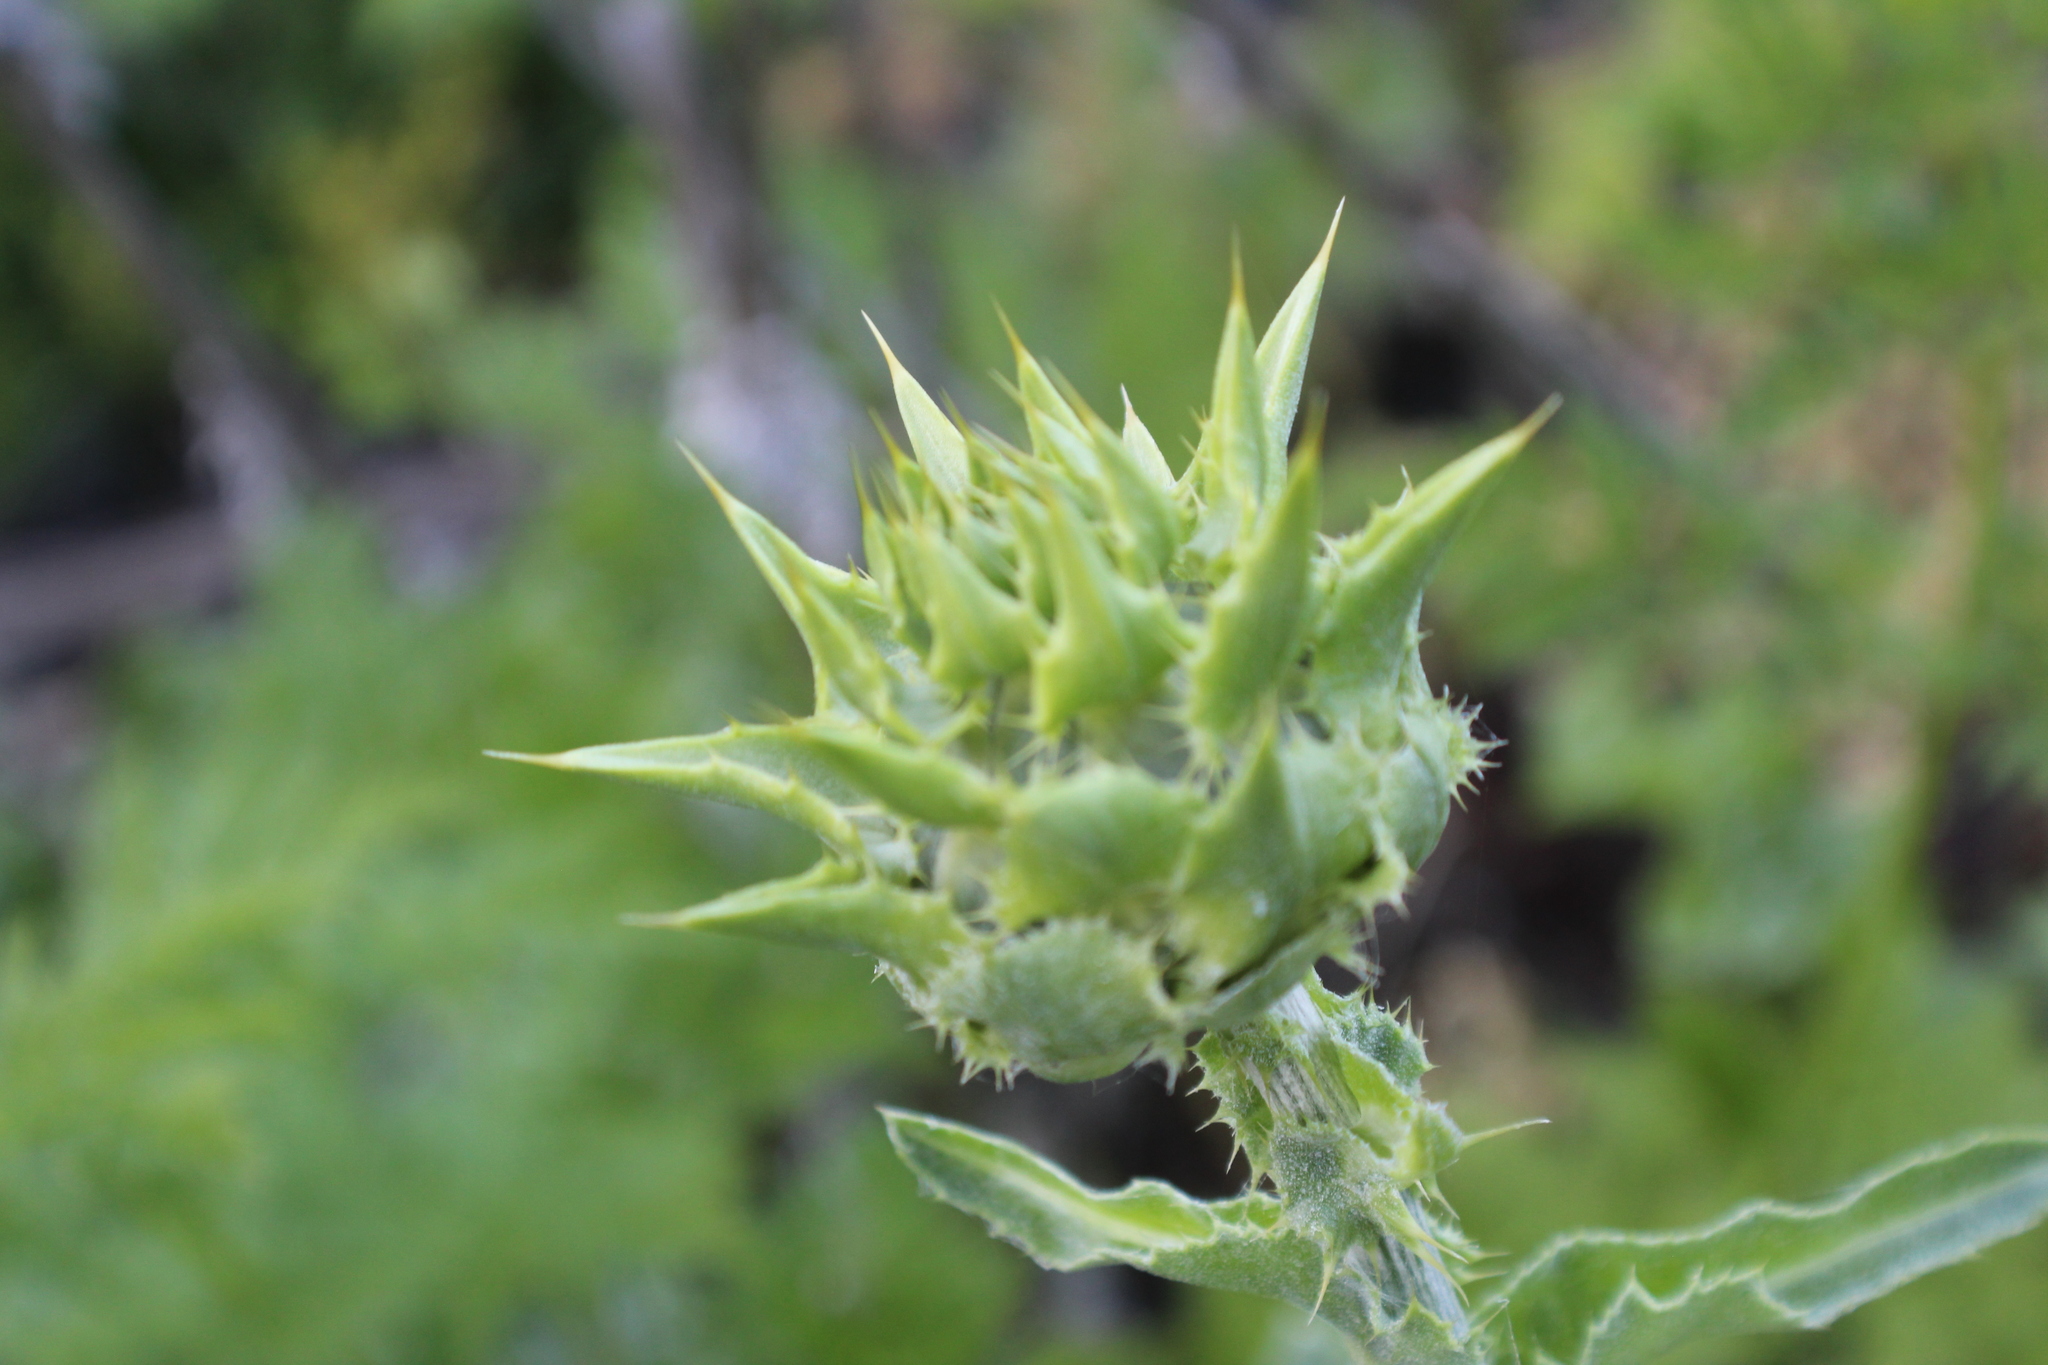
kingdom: Plantae
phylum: Tracheophyta
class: Magnoliopsida
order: Asterales
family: Asteraceae
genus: Silybum
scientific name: Silybum marianum
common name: Milk thistle
